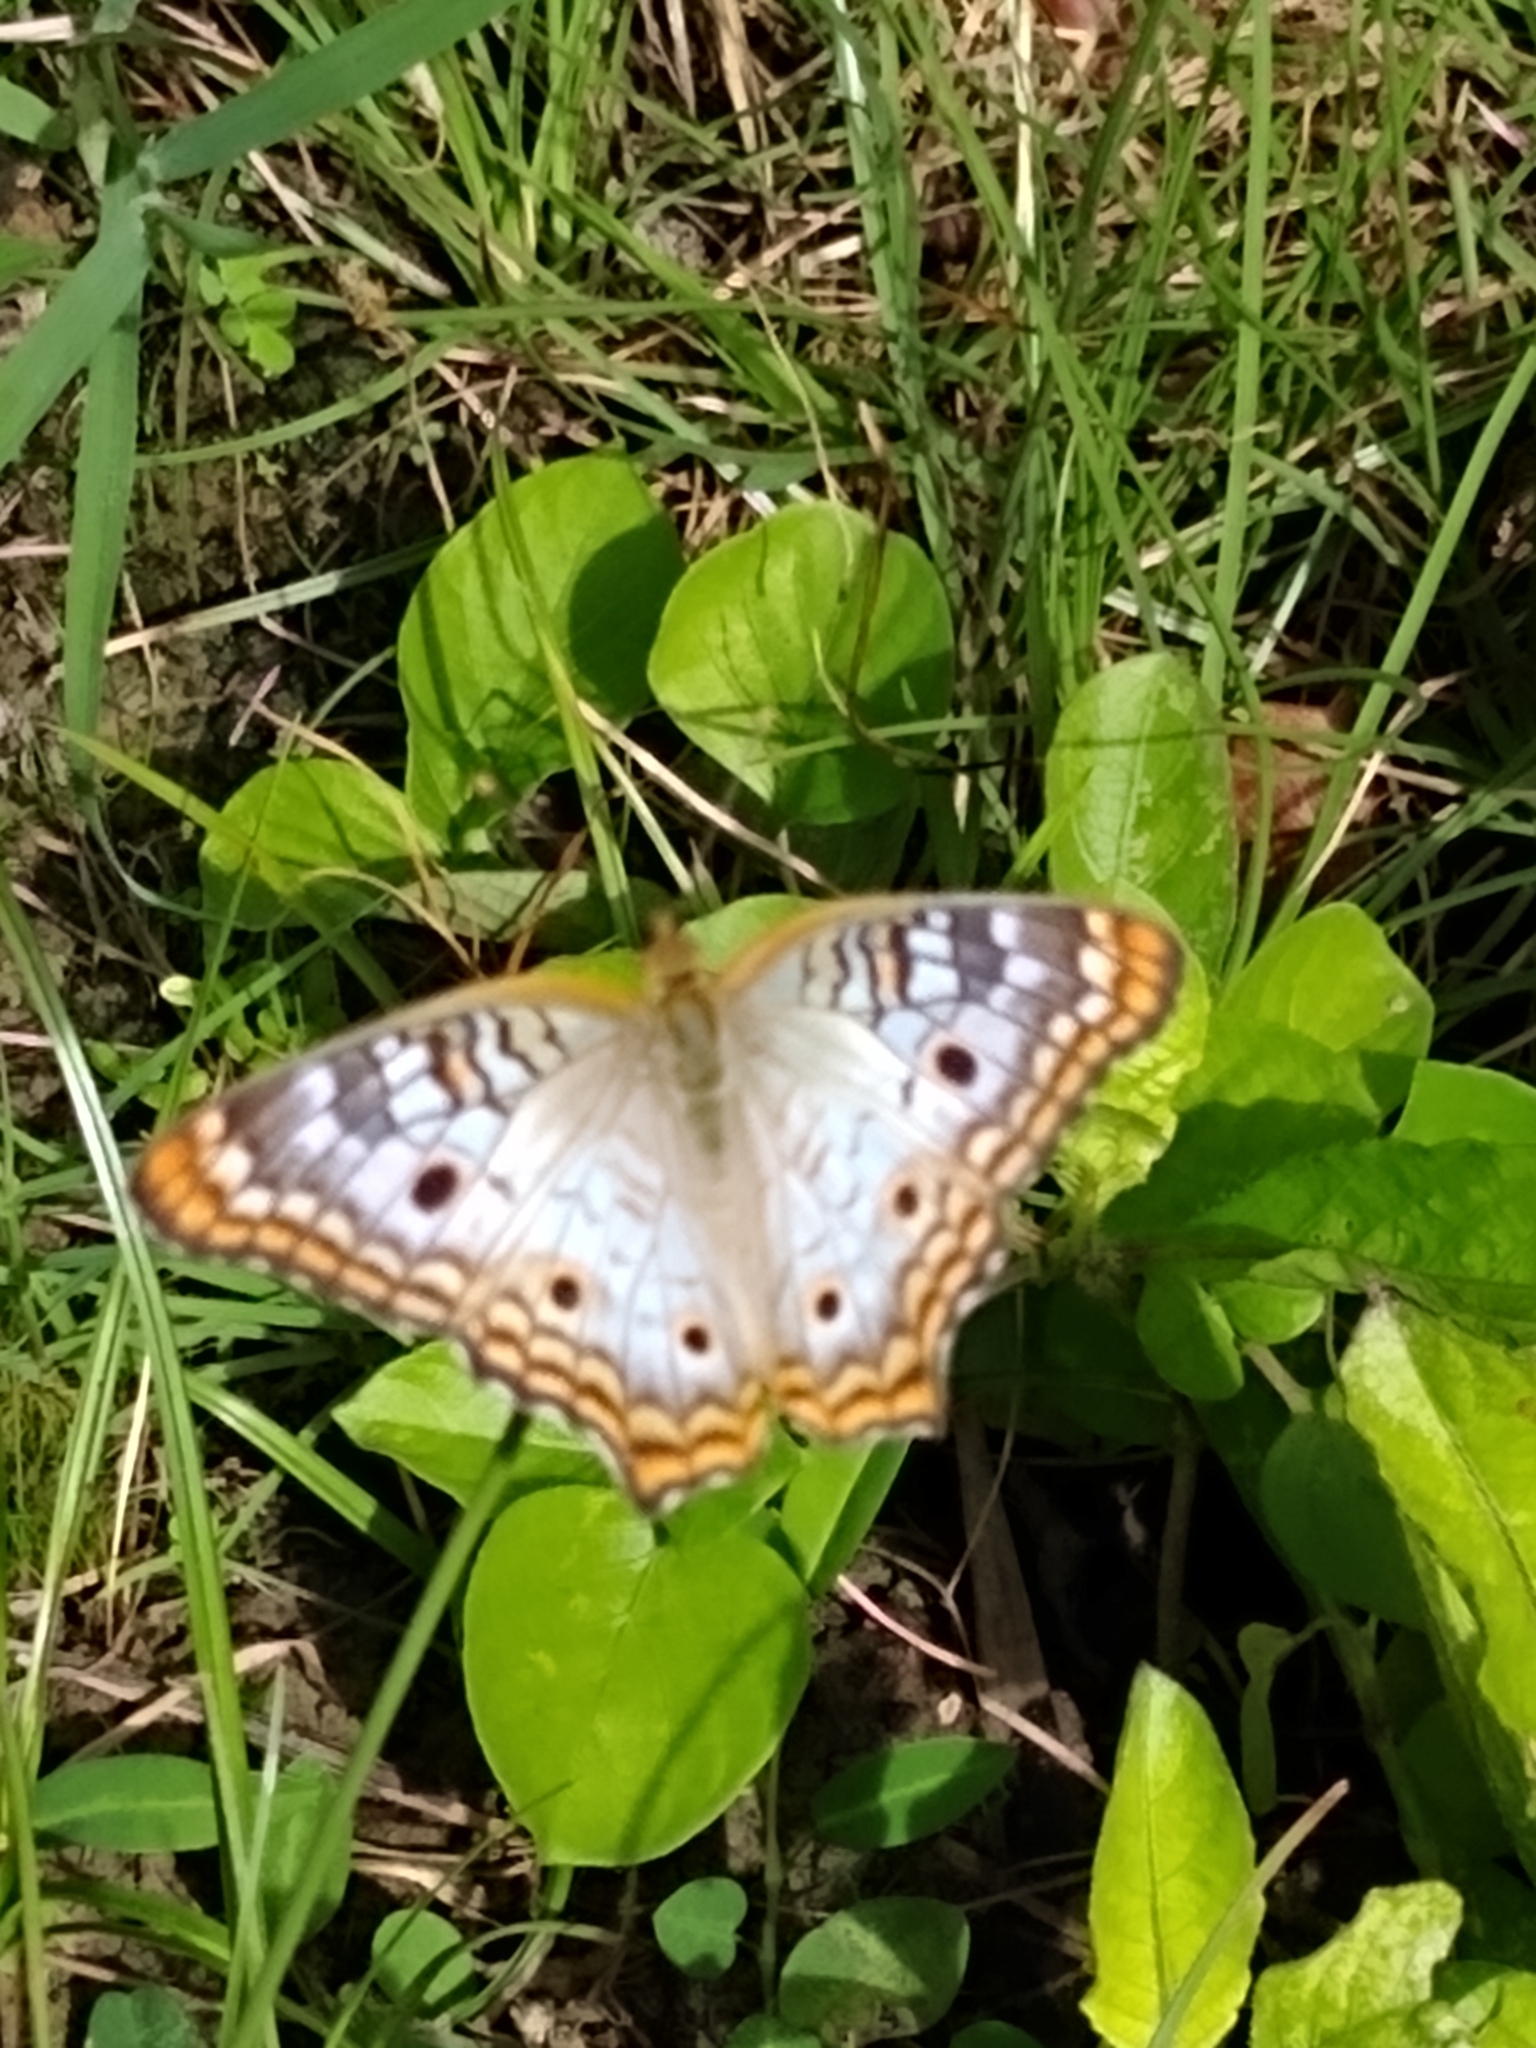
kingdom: Animalia
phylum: Arthropoda
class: Insecta
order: Lepidoptera
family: Nymphalidae
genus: Anartia
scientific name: Anartia jatrophae
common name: White peacock
